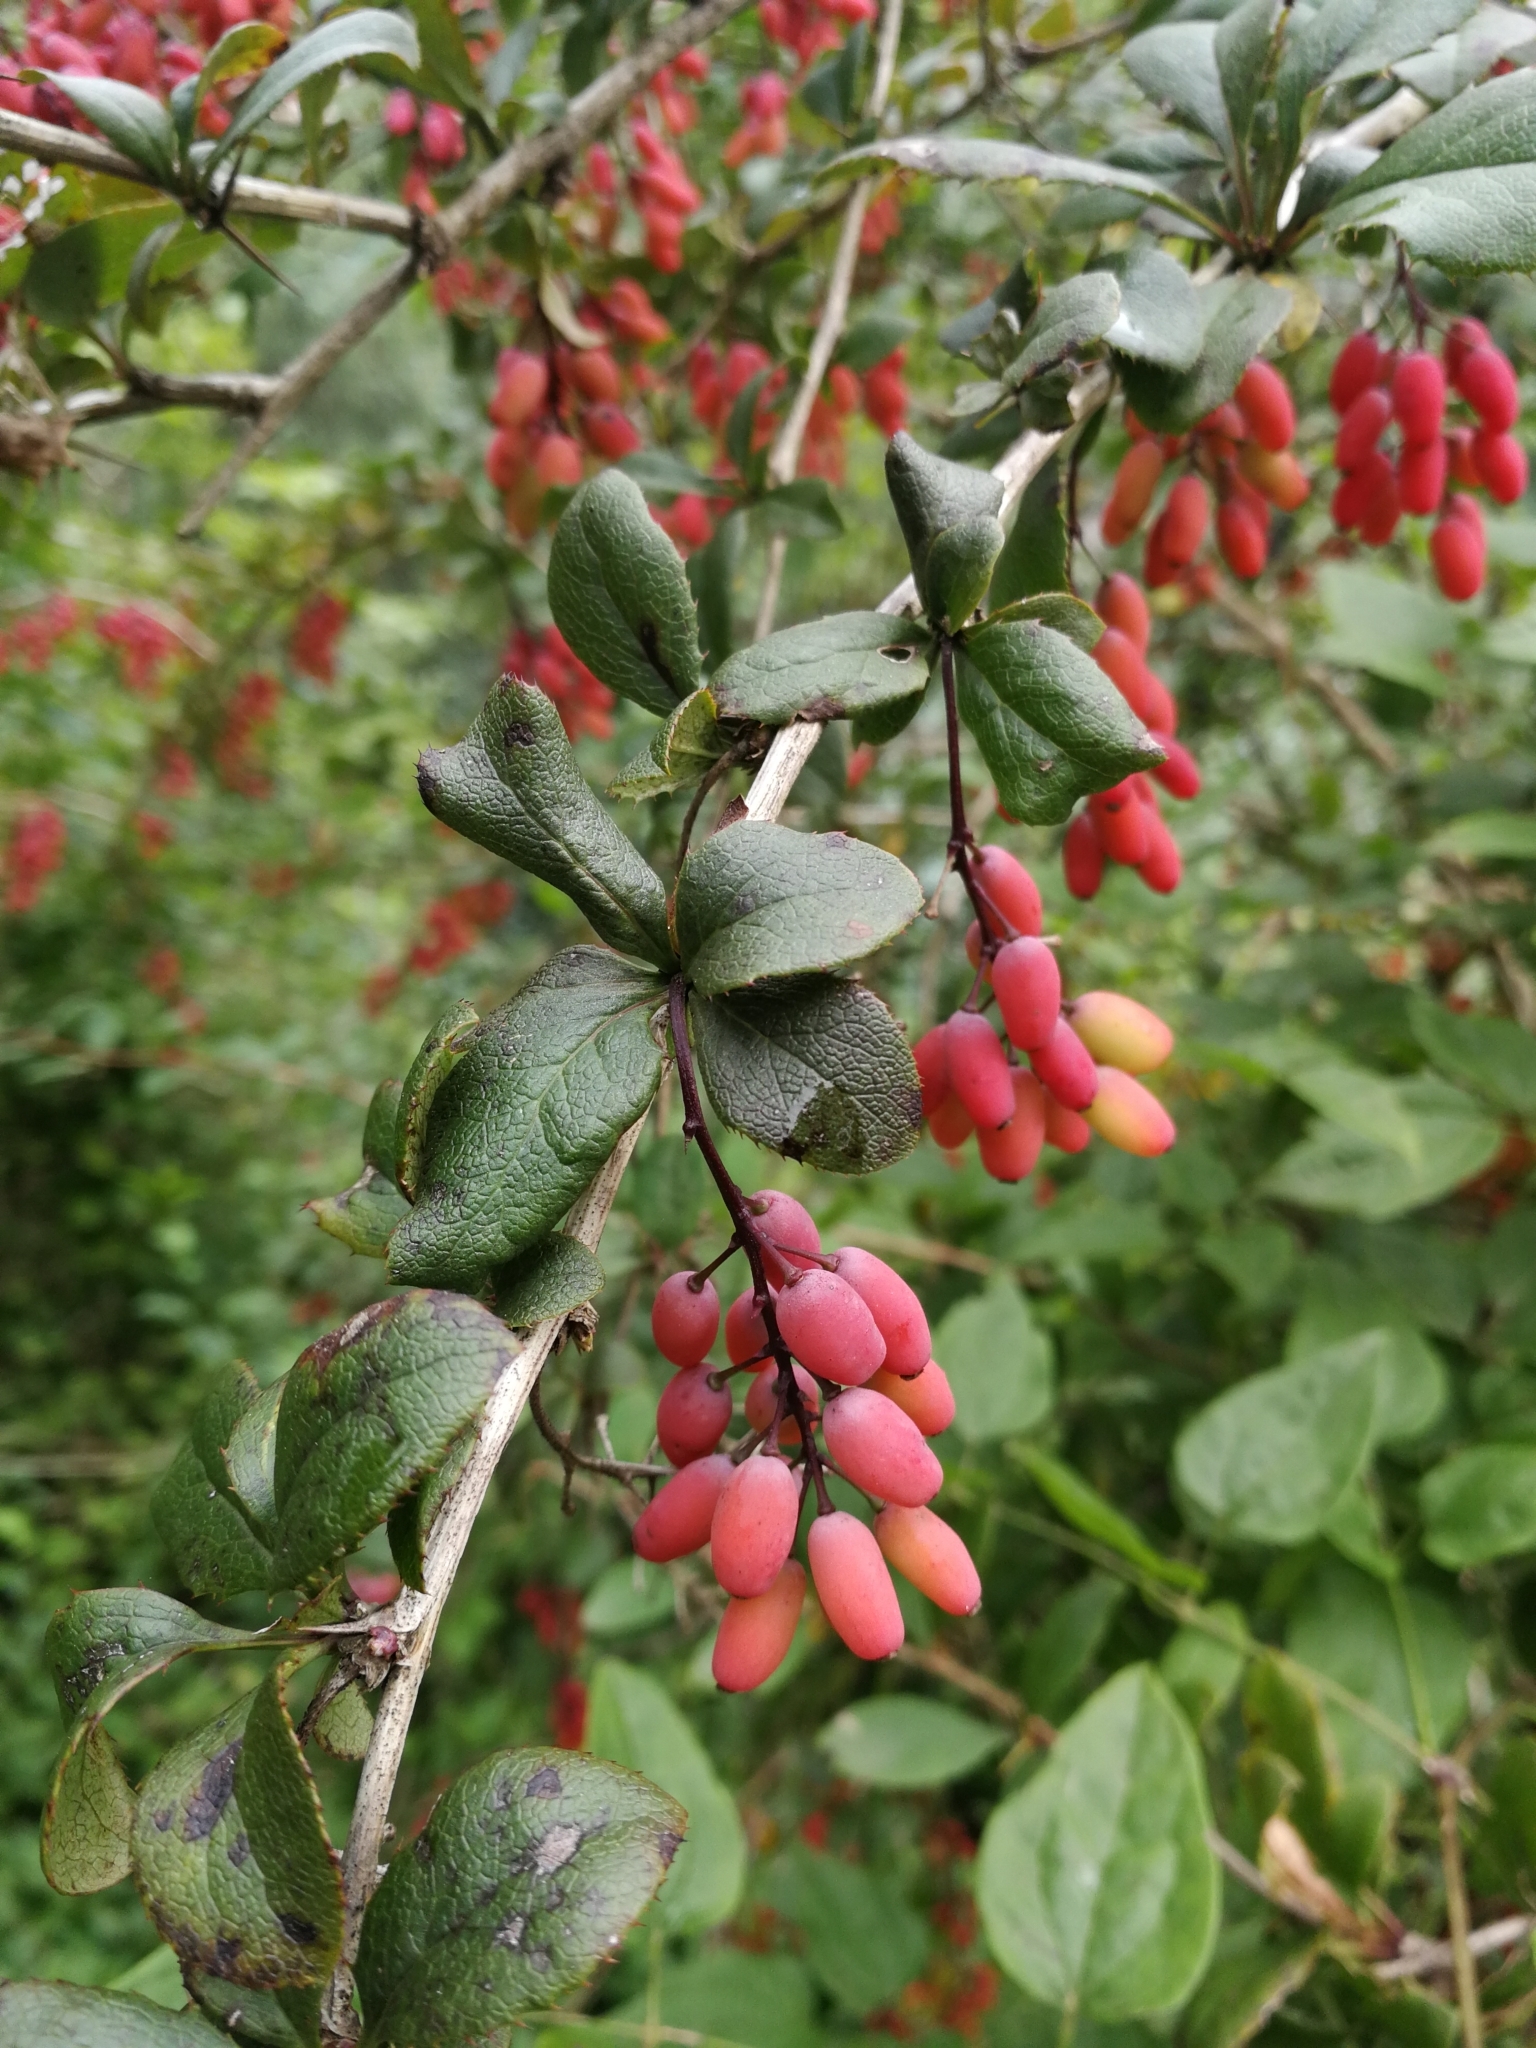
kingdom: Plantae
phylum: Tracheophyta
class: Magnoliopsida
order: Ranunculales
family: Berberidaceae
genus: Berberis
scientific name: Berberis vulgaris
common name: Barberry
